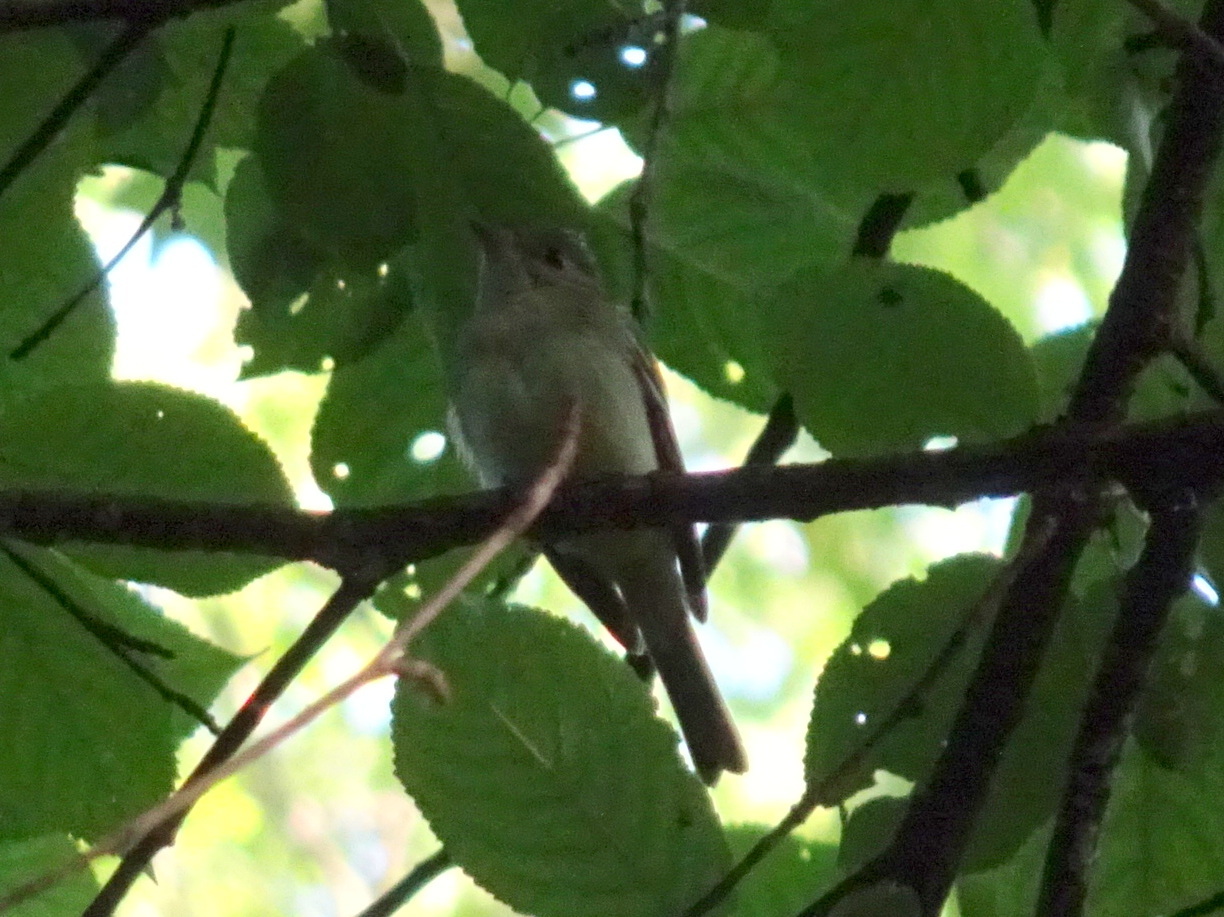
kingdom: Animalia
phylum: Chordata
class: Aves
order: Passeriformes
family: Tyrannidae
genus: Empidonax
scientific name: Empidonax virescens
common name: Acadian flycatcher
